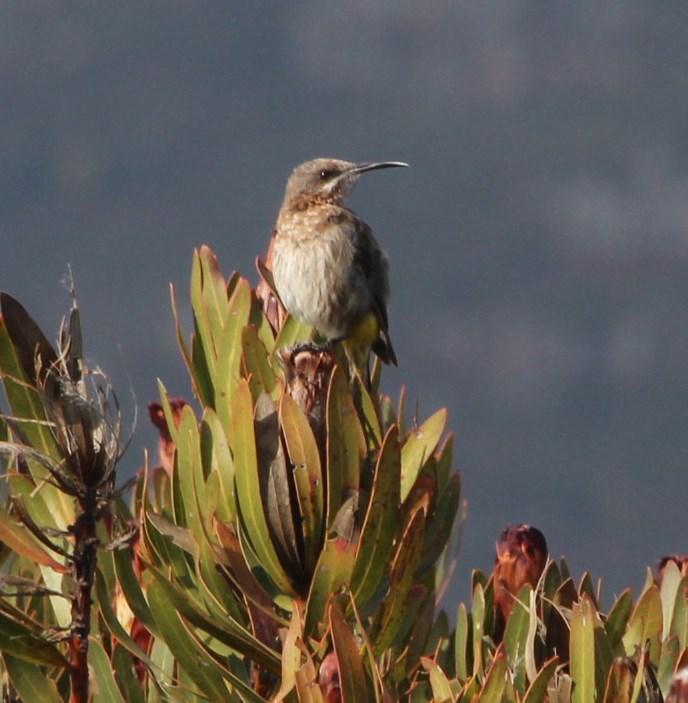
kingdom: Animalia
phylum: Chordata
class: Aves
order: Passeriformes
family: Promeropidae
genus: Promerops
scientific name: Promerops cafer
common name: Cape sugarbird
